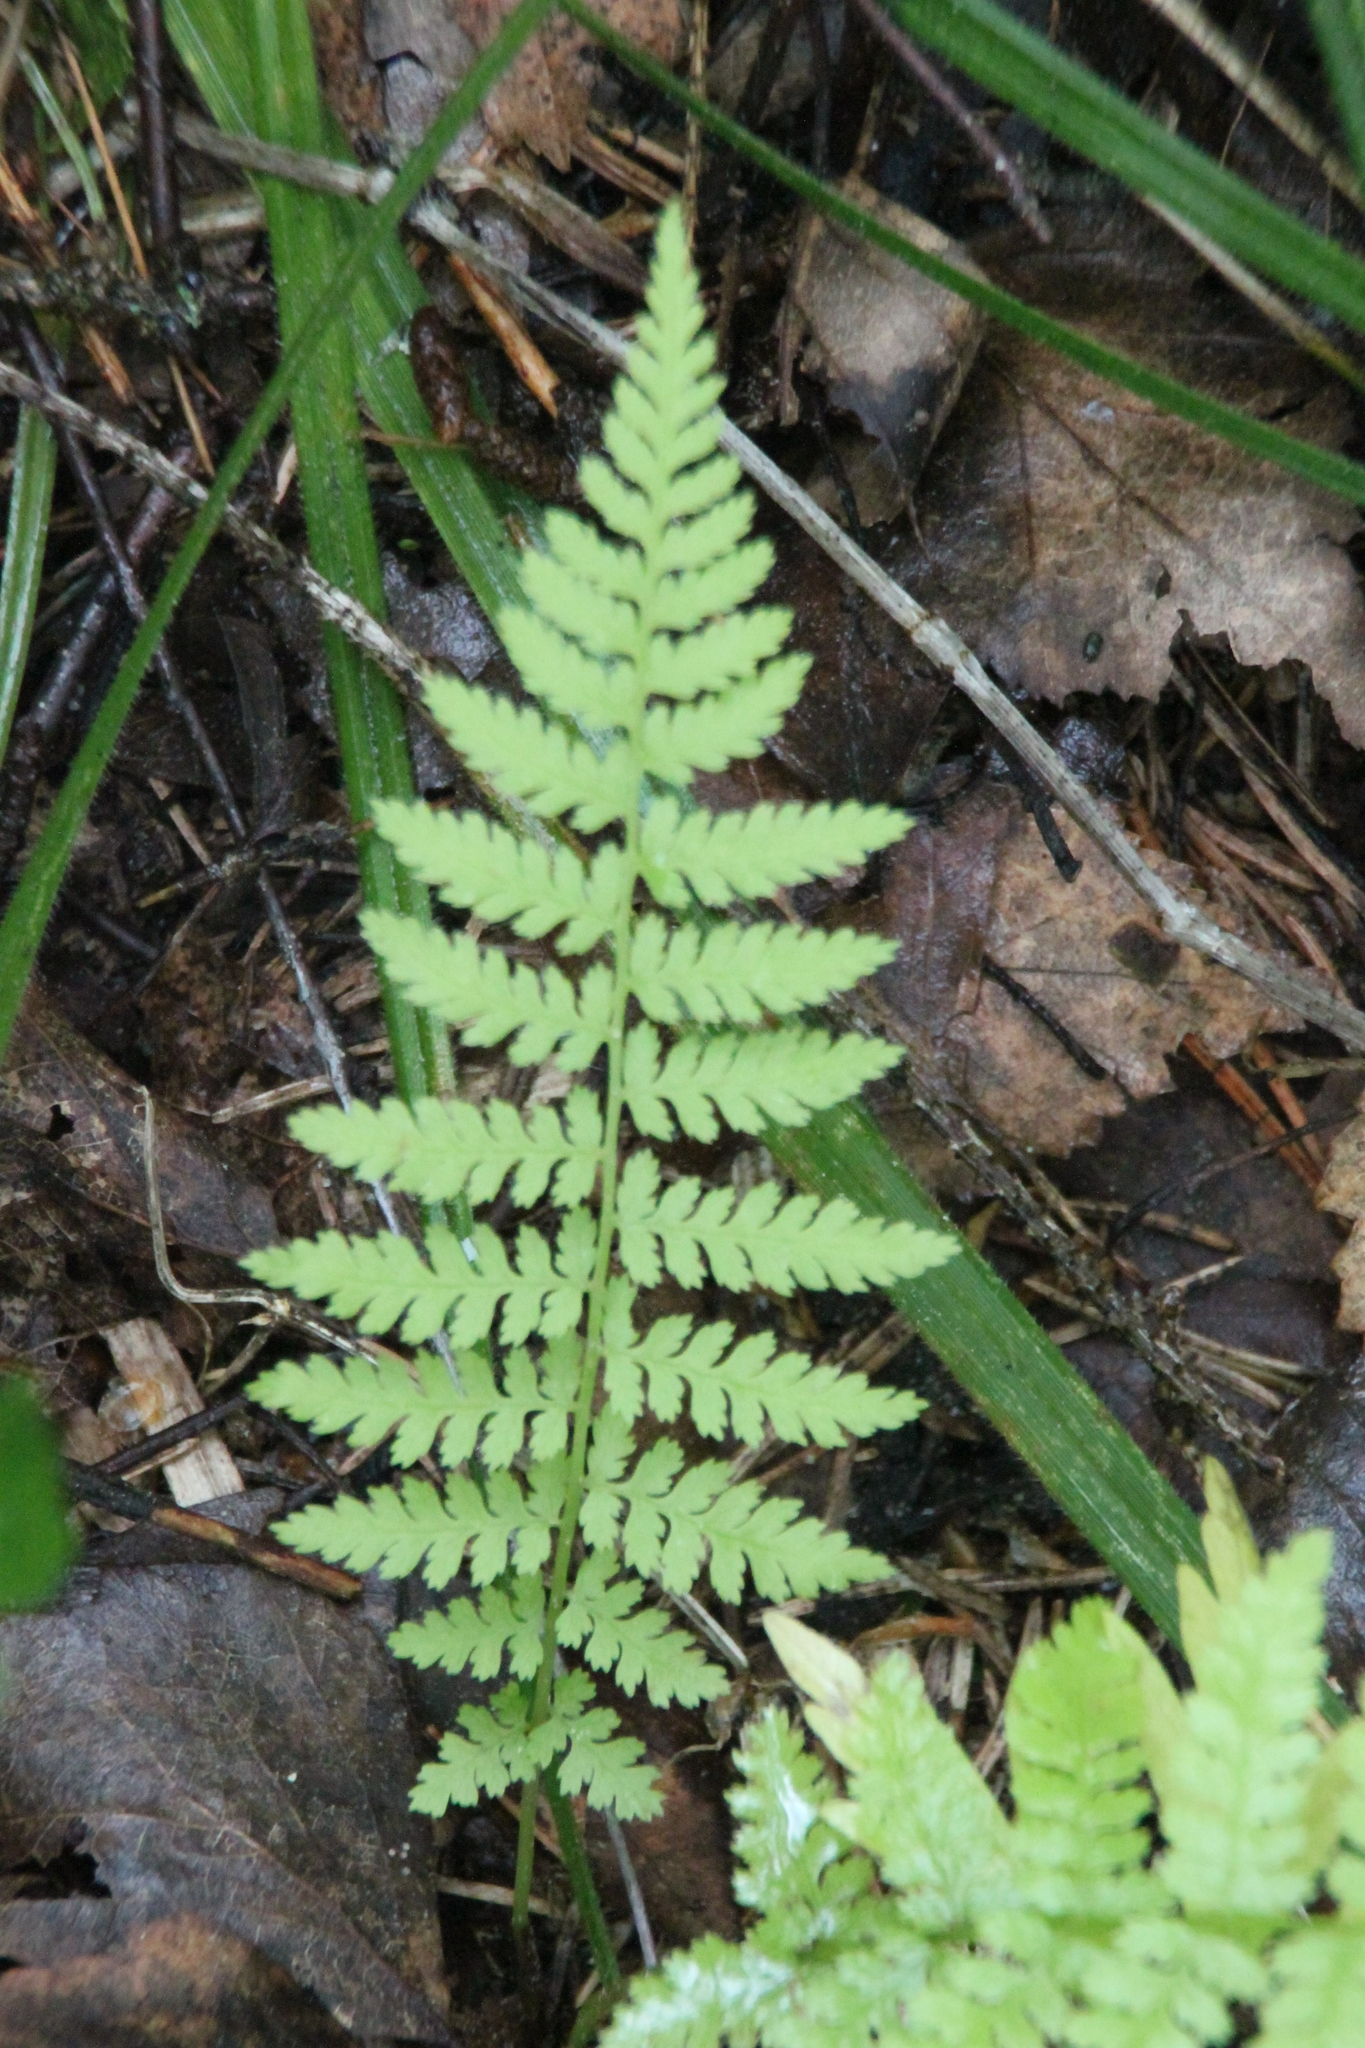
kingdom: Plantae
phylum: Tracheophyta
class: Polypodiopsida
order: Polypodiales
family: Athyriaceae
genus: Athyrium
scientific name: Athyrium filix-femina
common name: Lady fern
